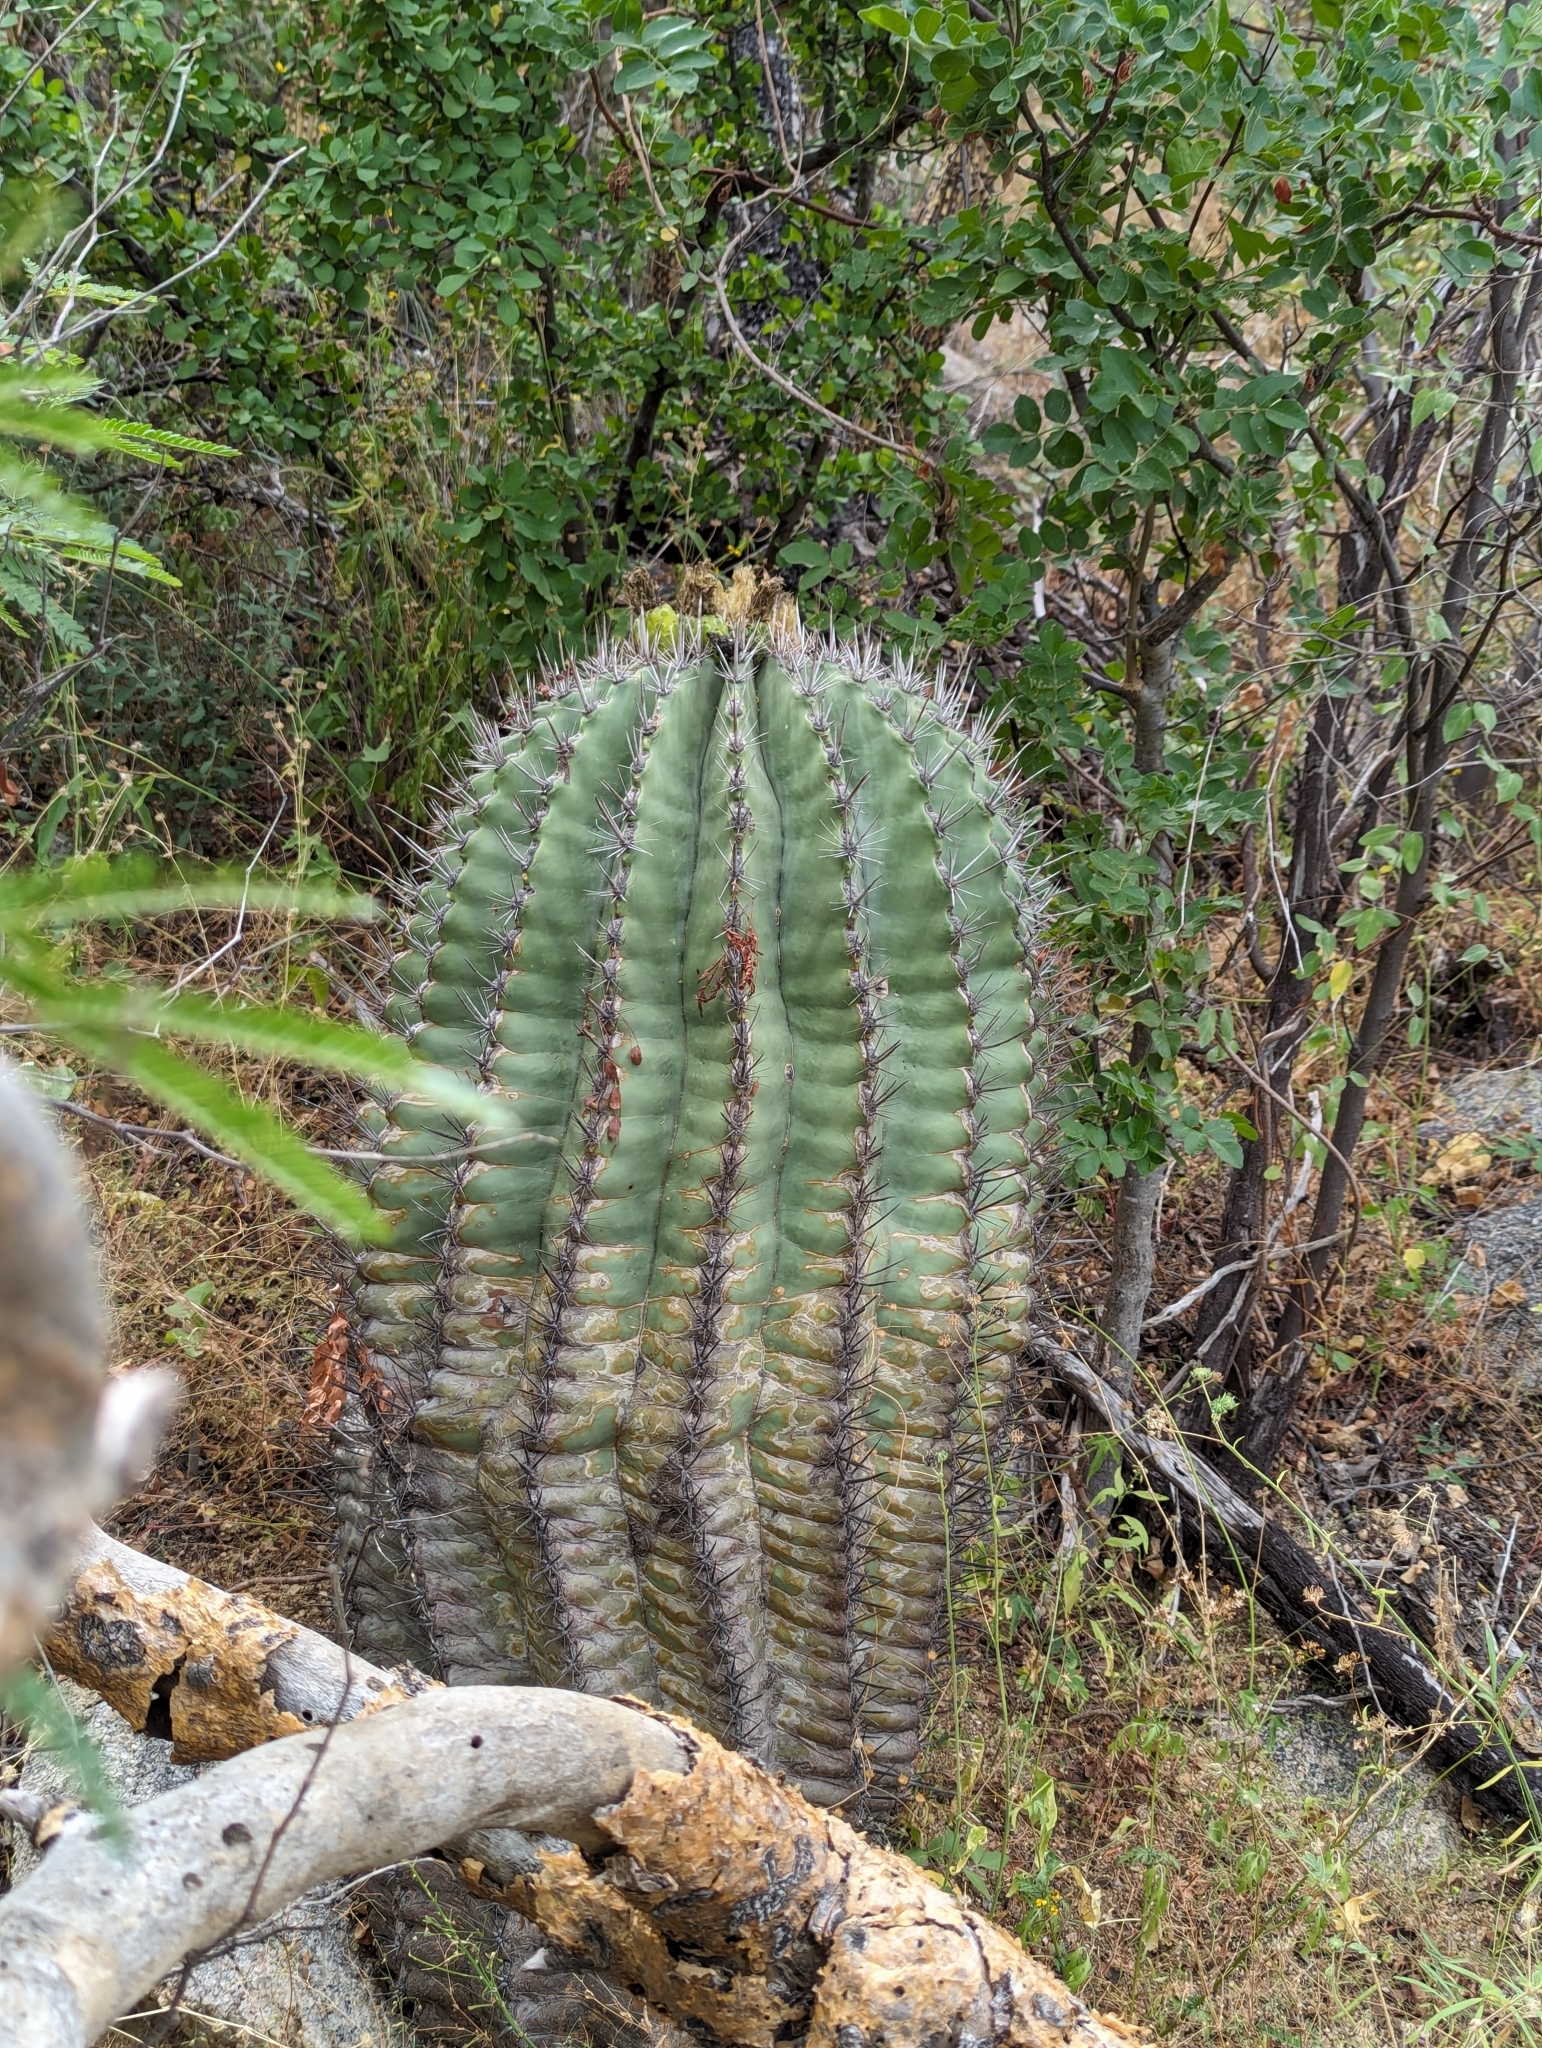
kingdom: Plantae
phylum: Tracheophyta
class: Magnoliopsida
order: Caryophyllales
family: Cactaceae
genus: Ferocactus
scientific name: Ferocactus townsendianus
